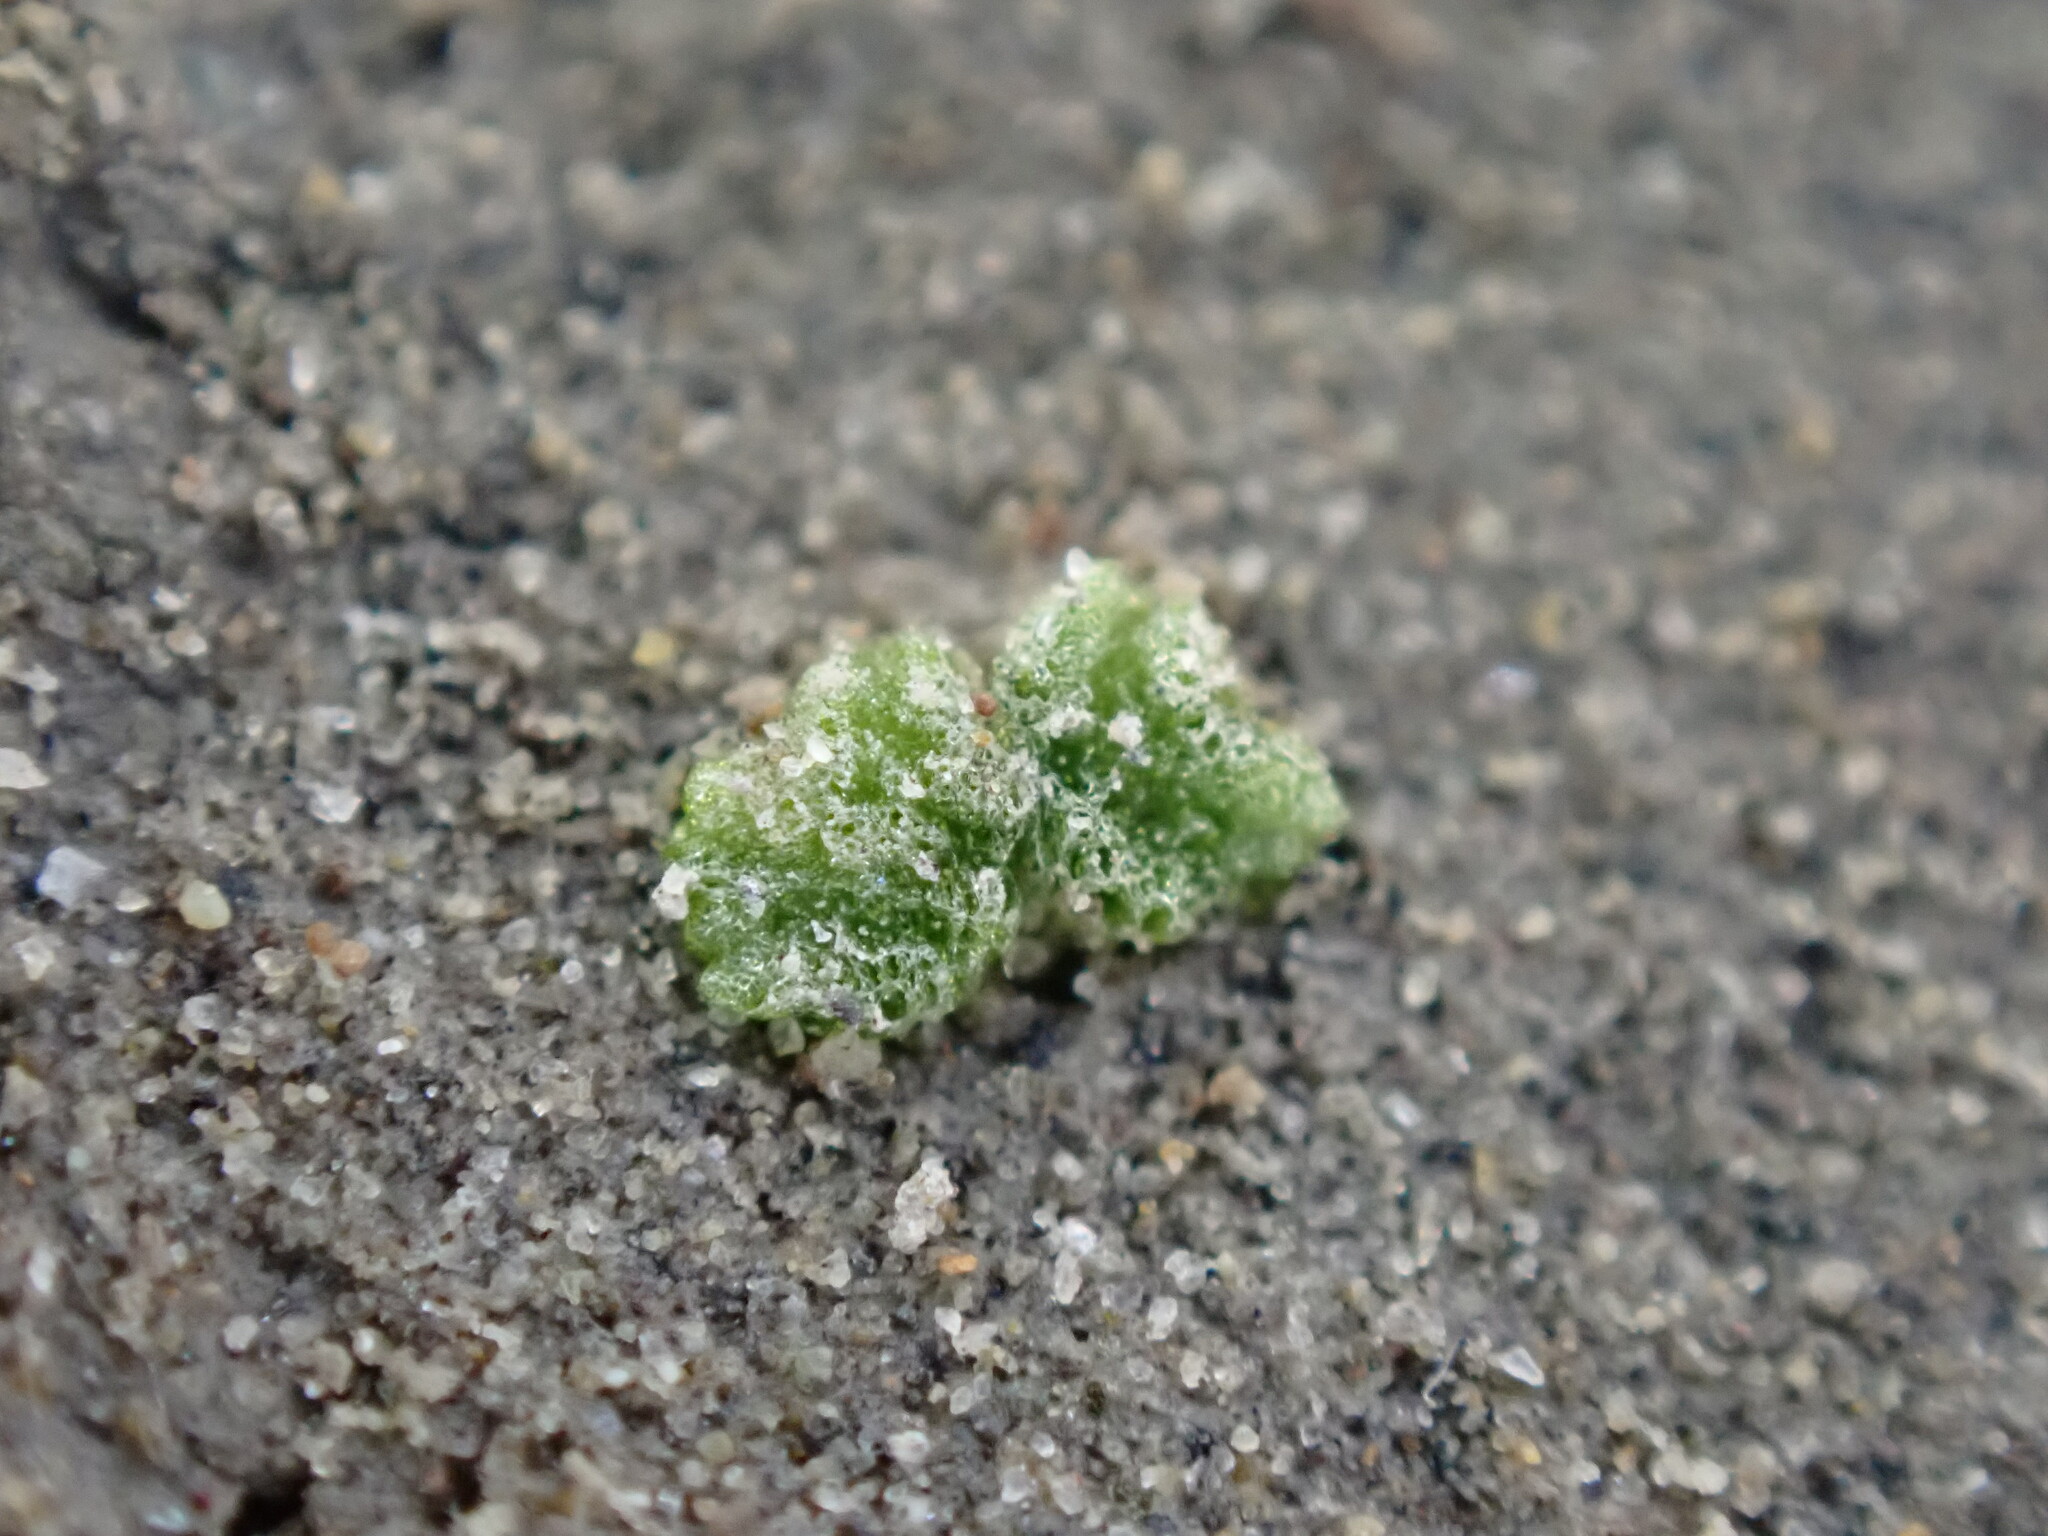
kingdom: Plantae
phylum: Marchantiophyta
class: Marchantiopsida
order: Marchantiales
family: Ricciaceae
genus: Riccia
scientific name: Riccia cavernosa
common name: Cavernous crystalwort
